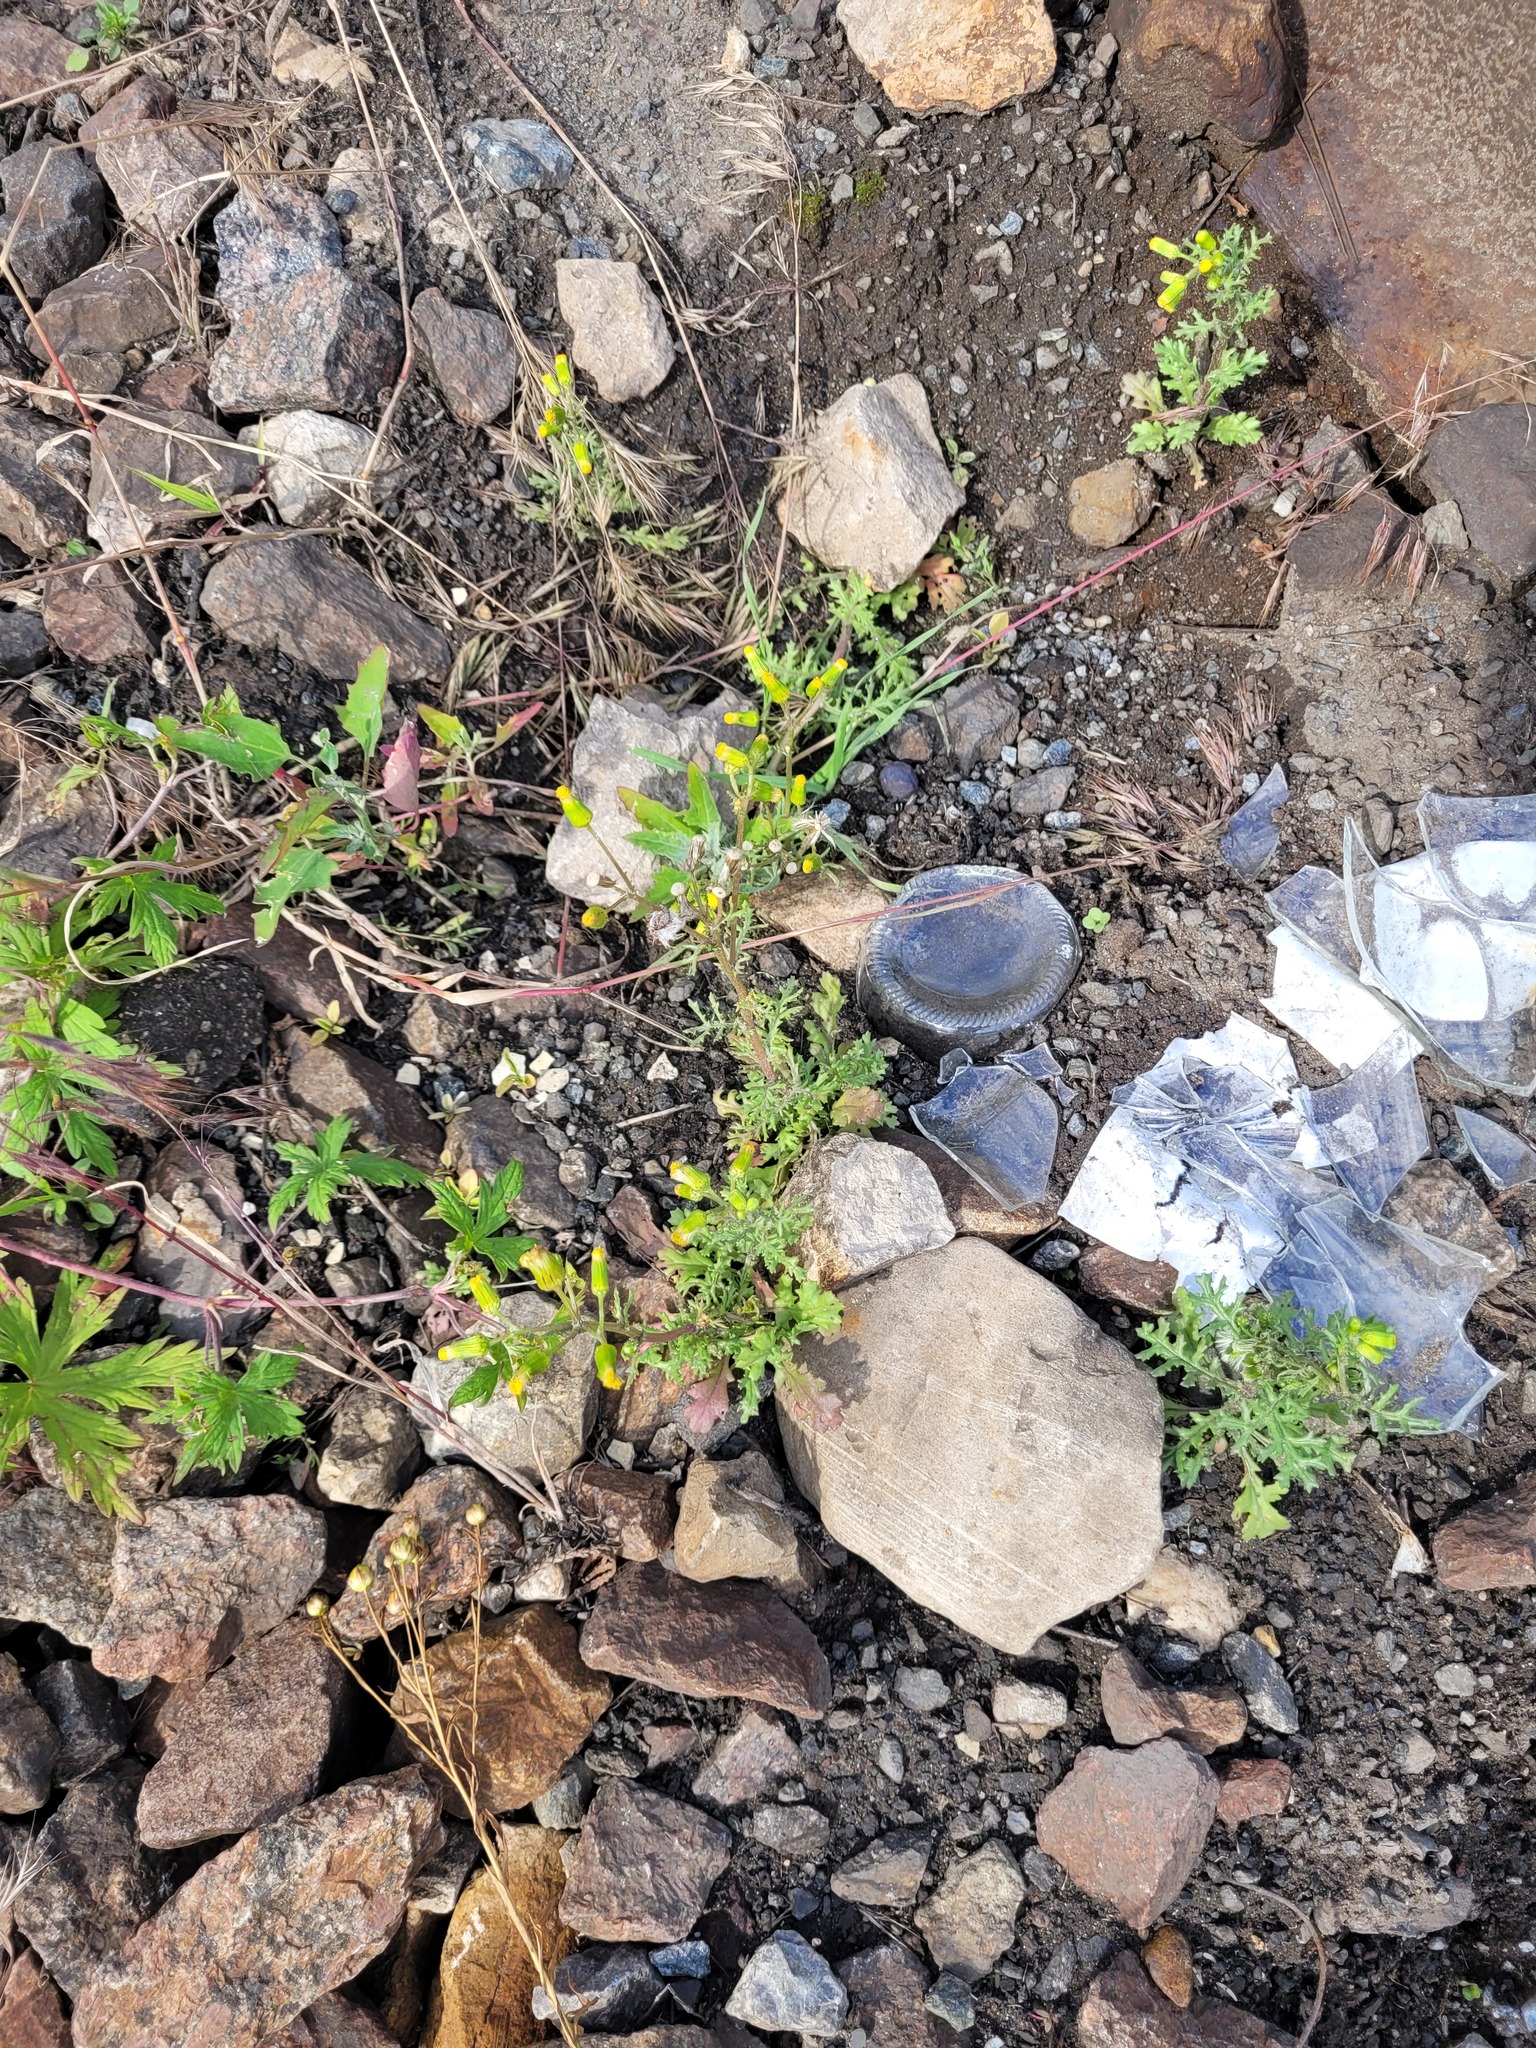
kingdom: Plantae
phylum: Tracheophyta
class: Magnoliopsida
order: Asterales
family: Asteraceae
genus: Senecio
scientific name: Senecio vulgaris
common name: Old-man-in-the-spring
